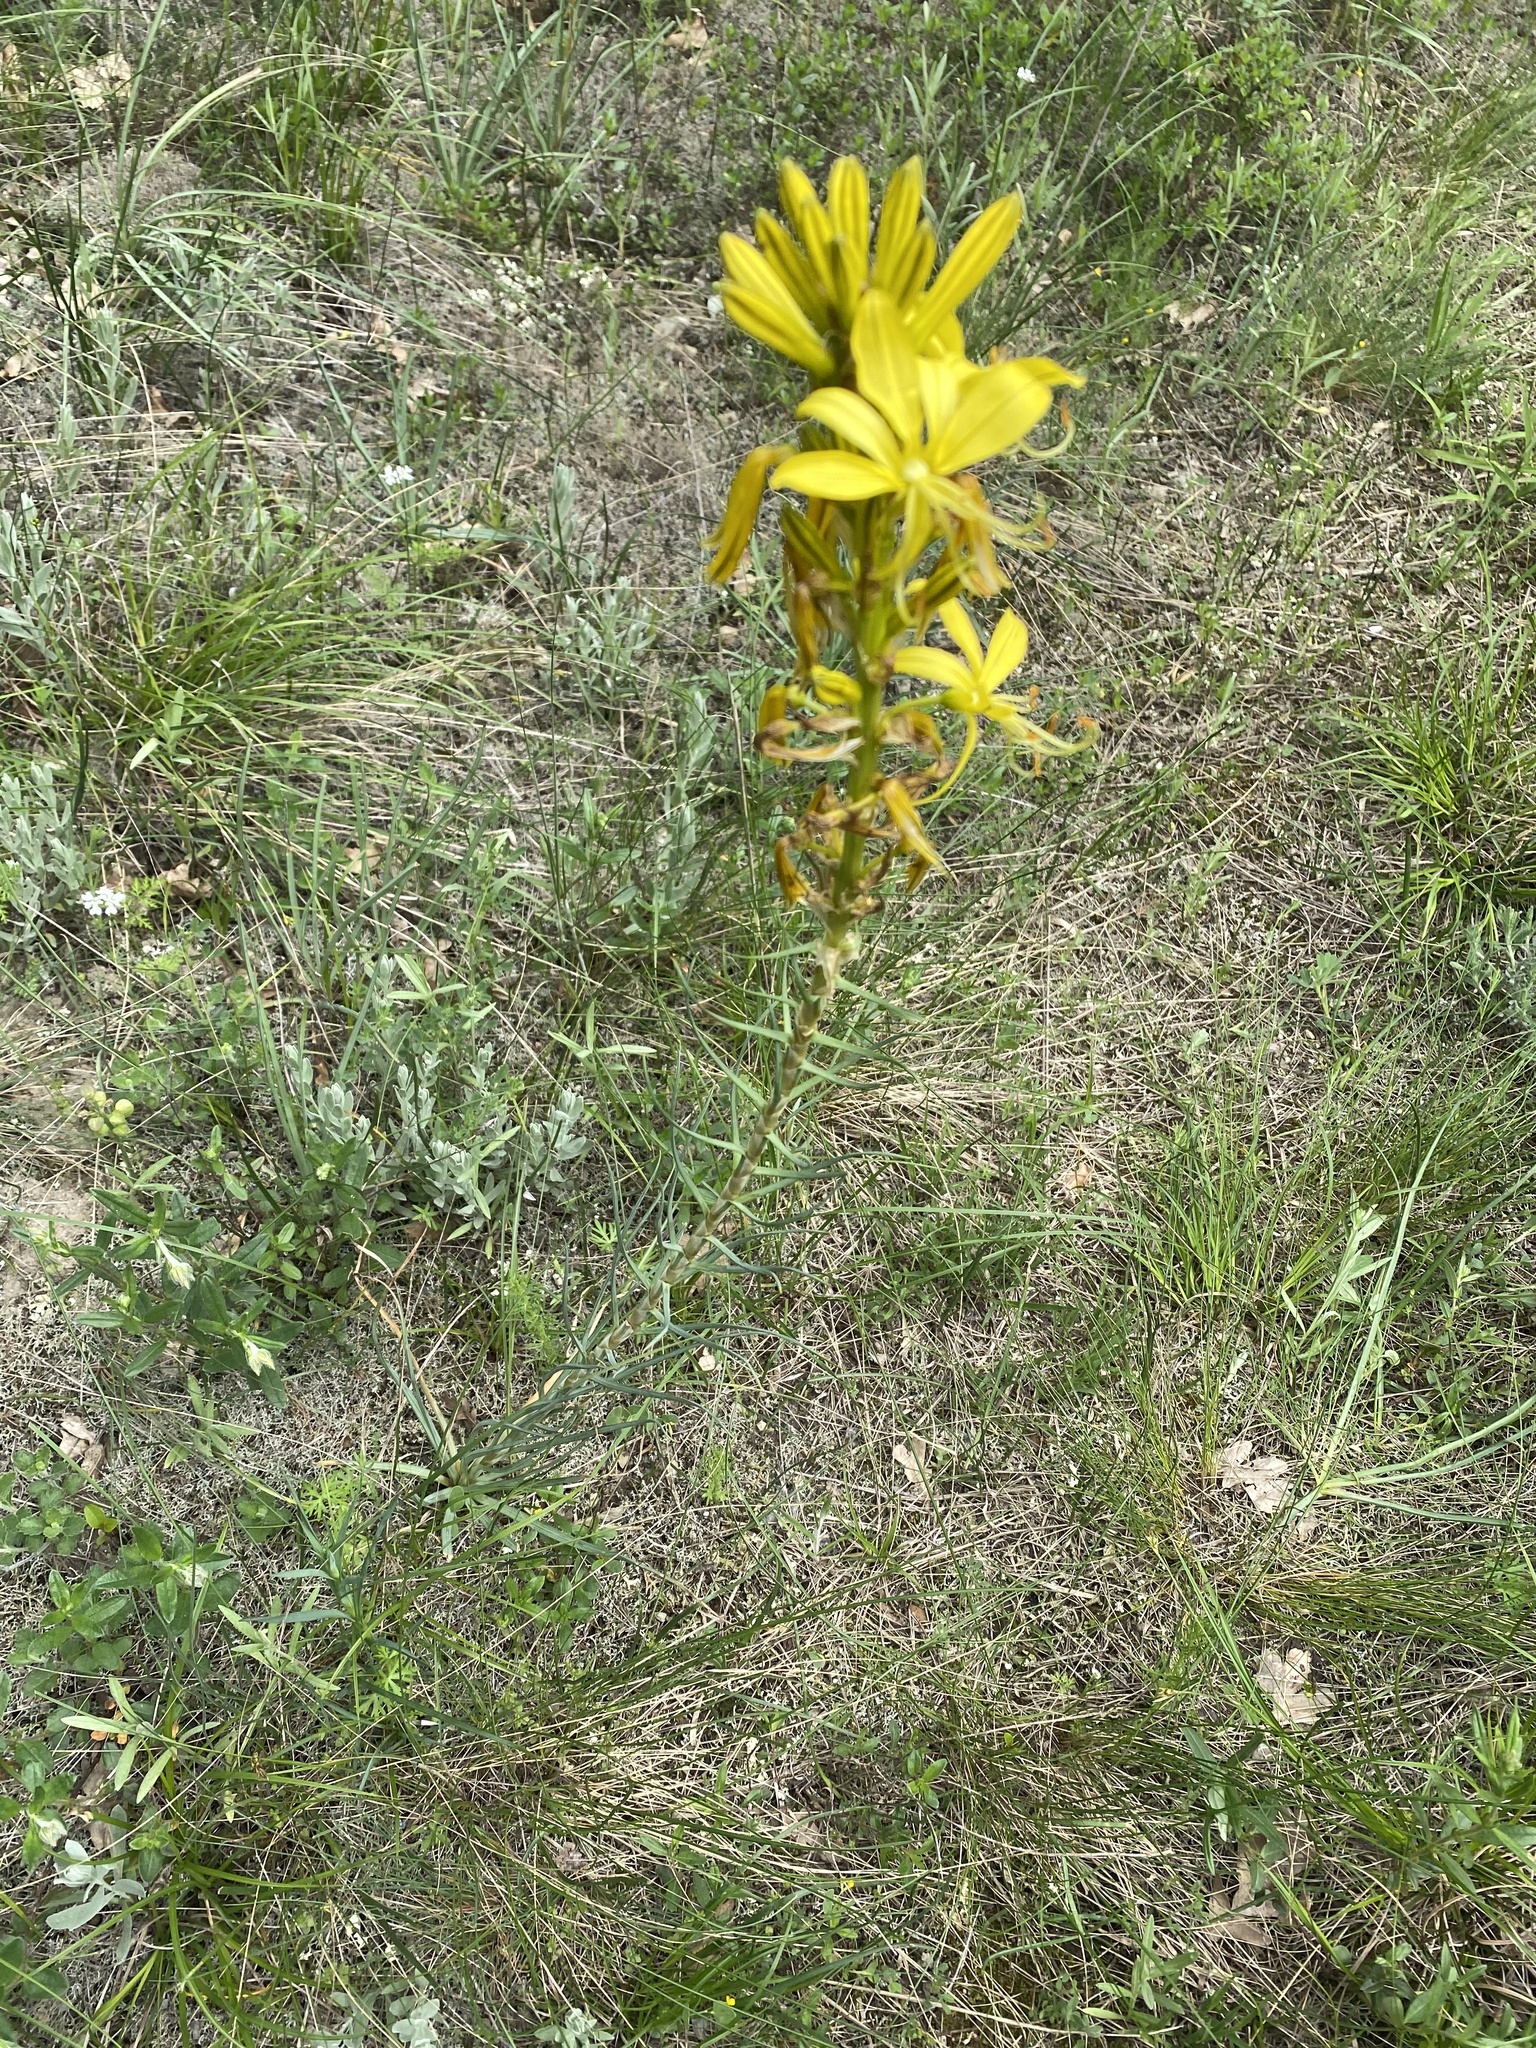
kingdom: Plantae
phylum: Tracheophyta
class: Liliopsida
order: Asparagales
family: Asphodelaceae
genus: Asphodeline
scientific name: Asphodeline lutea
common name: Yellow asphodel
